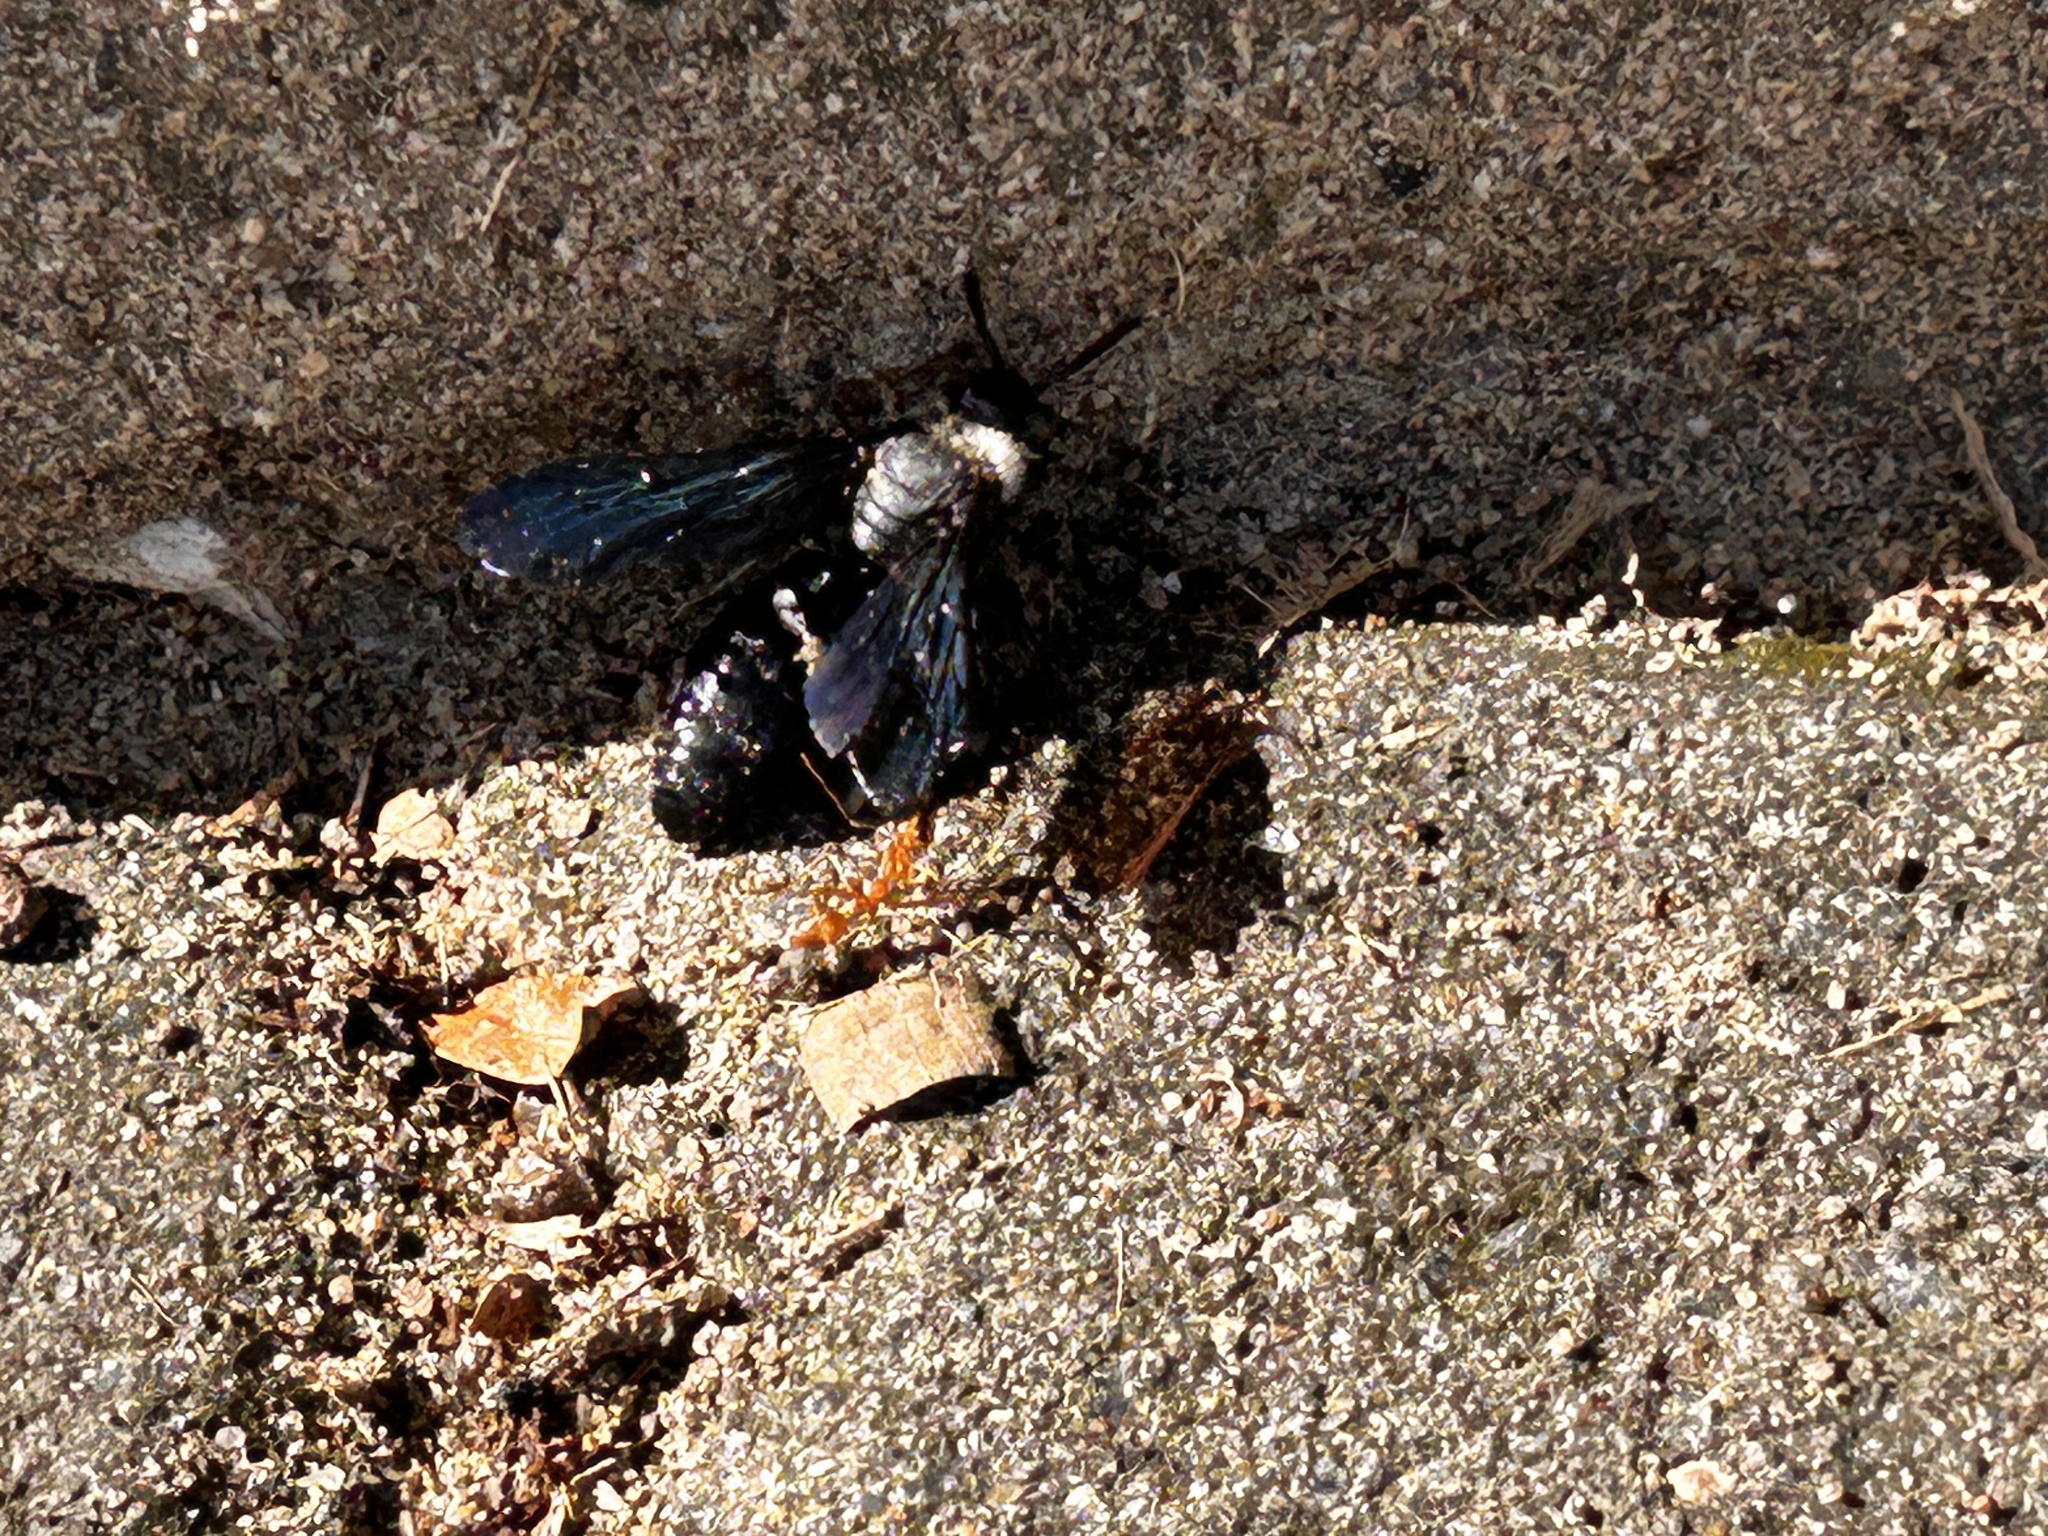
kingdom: Animalia
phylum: Arthropoda
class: Insecta
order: Hymenoptera
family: Scoliidae
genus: Campsomeriella
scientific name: Campsomeriella collaris
